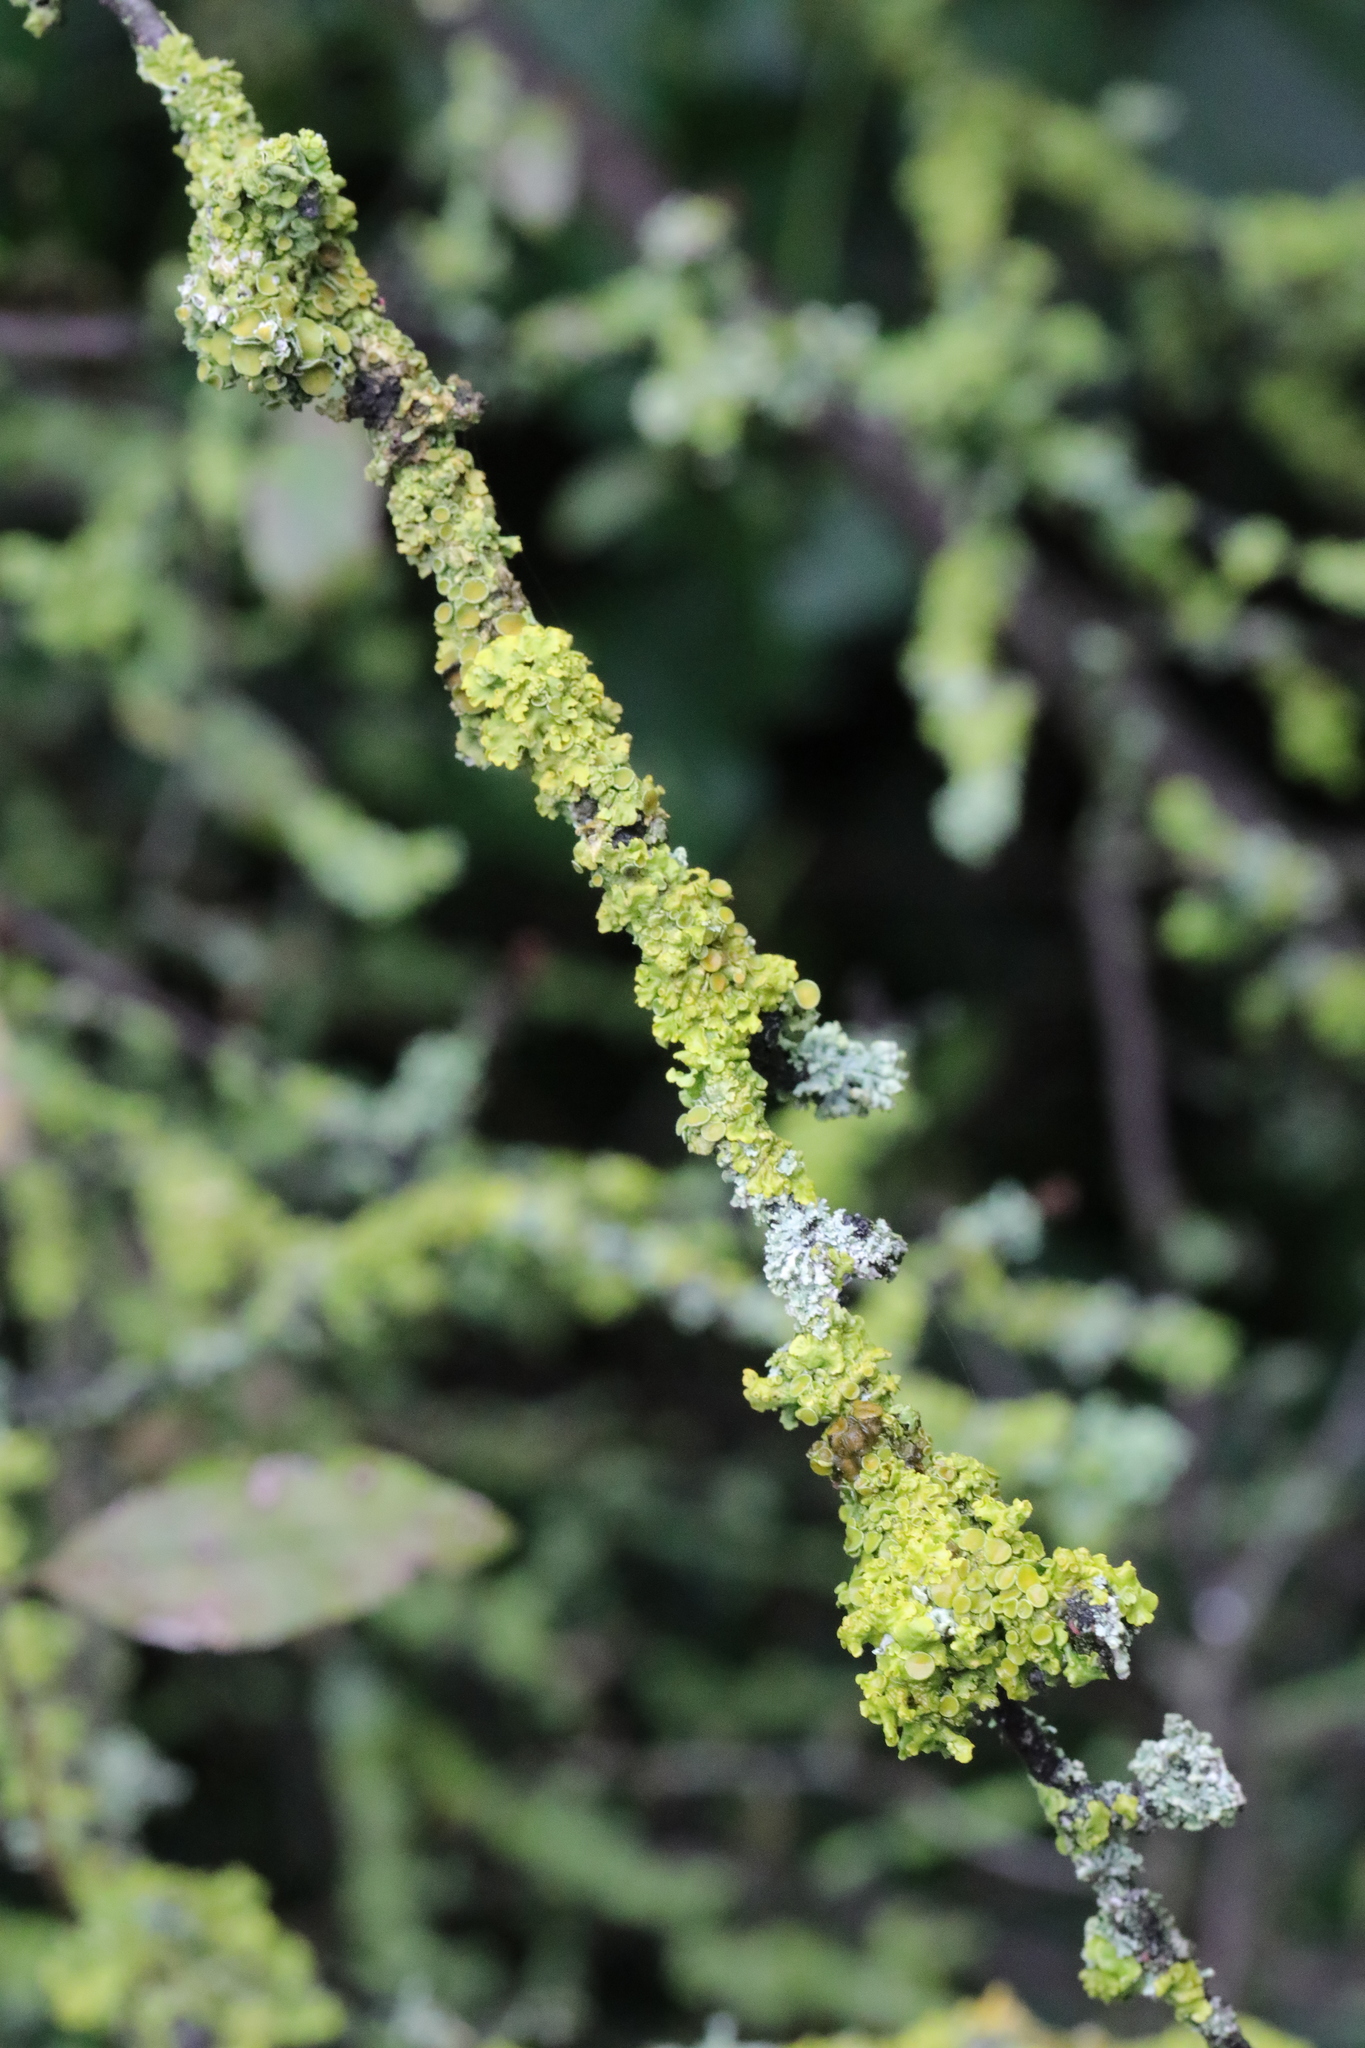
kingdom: Fungi
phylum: Ascomycota
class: Lecanoromycetes
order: Teloschistales
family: Teloschistaceae
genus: Xanthoria
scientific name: Xanthoria parietina
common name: Common orange lichen
